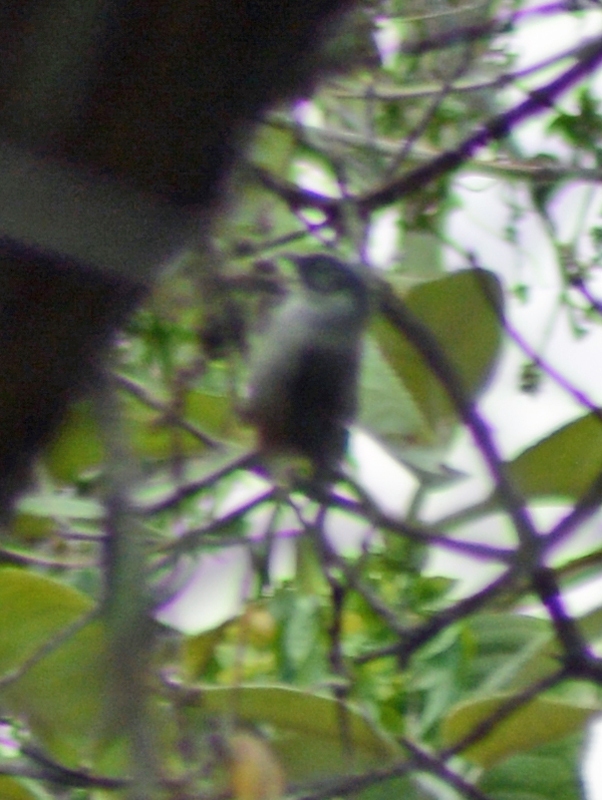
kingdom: Animalia
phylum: Chordata
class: Aves
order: Passeriformes
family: Aegithalidae
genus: Psaltriparus
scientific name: Psaltriparus minimus
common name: American bushtit
